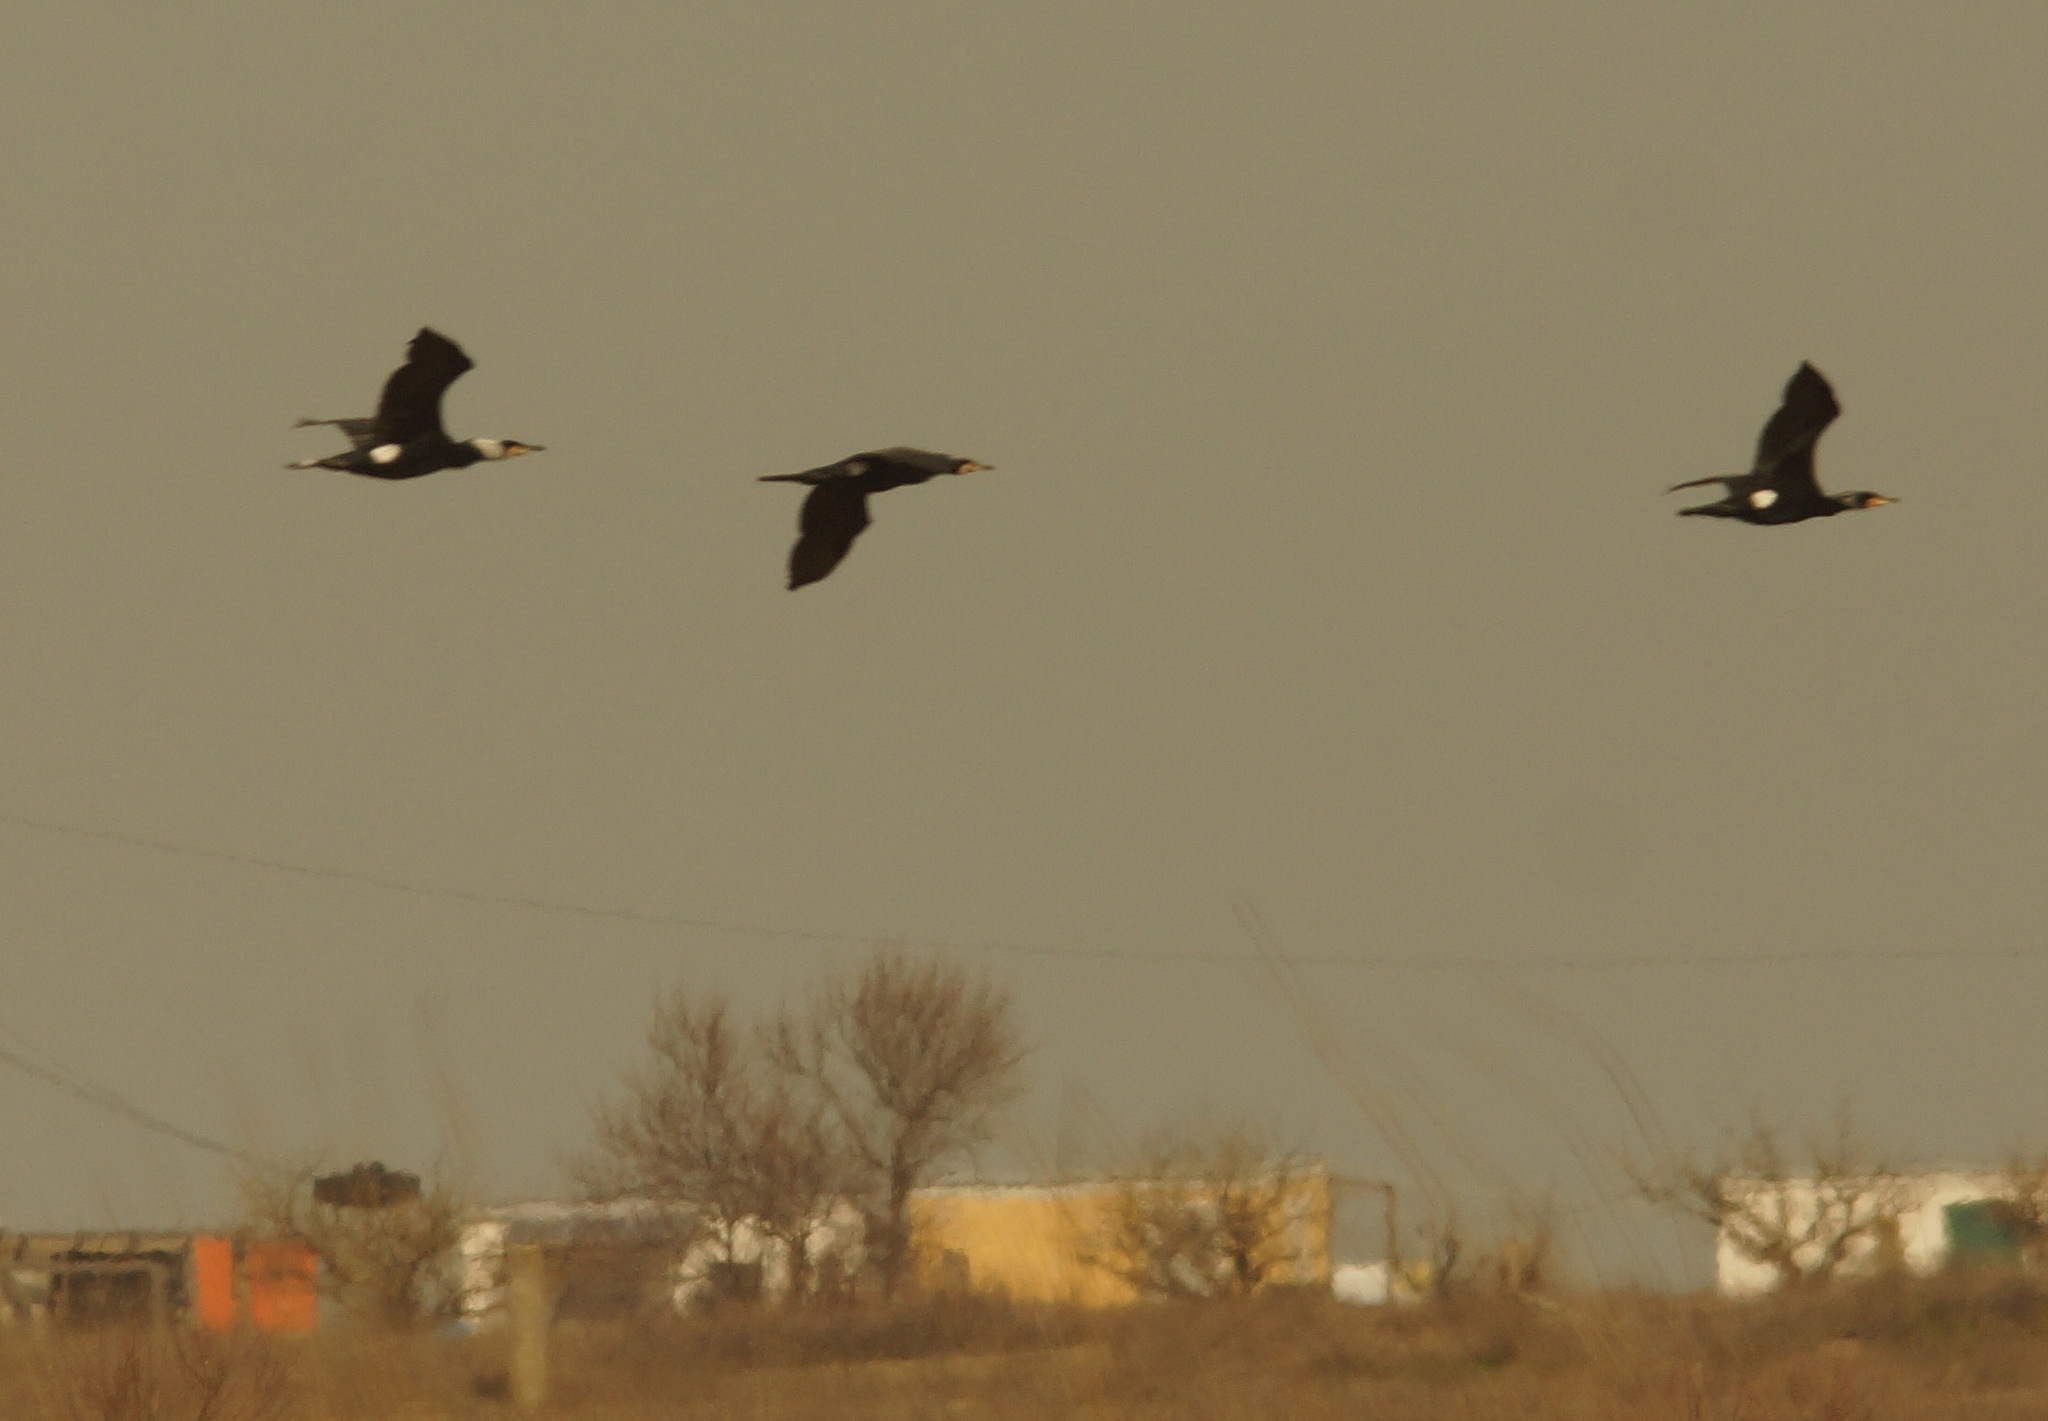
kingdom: Animalia
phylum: Chordata
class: Aves
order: Suliformes
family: Phalacrocoracidae
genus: Phalacrocorax
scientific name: Phalacrocorax carbo
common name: Great cormorant
